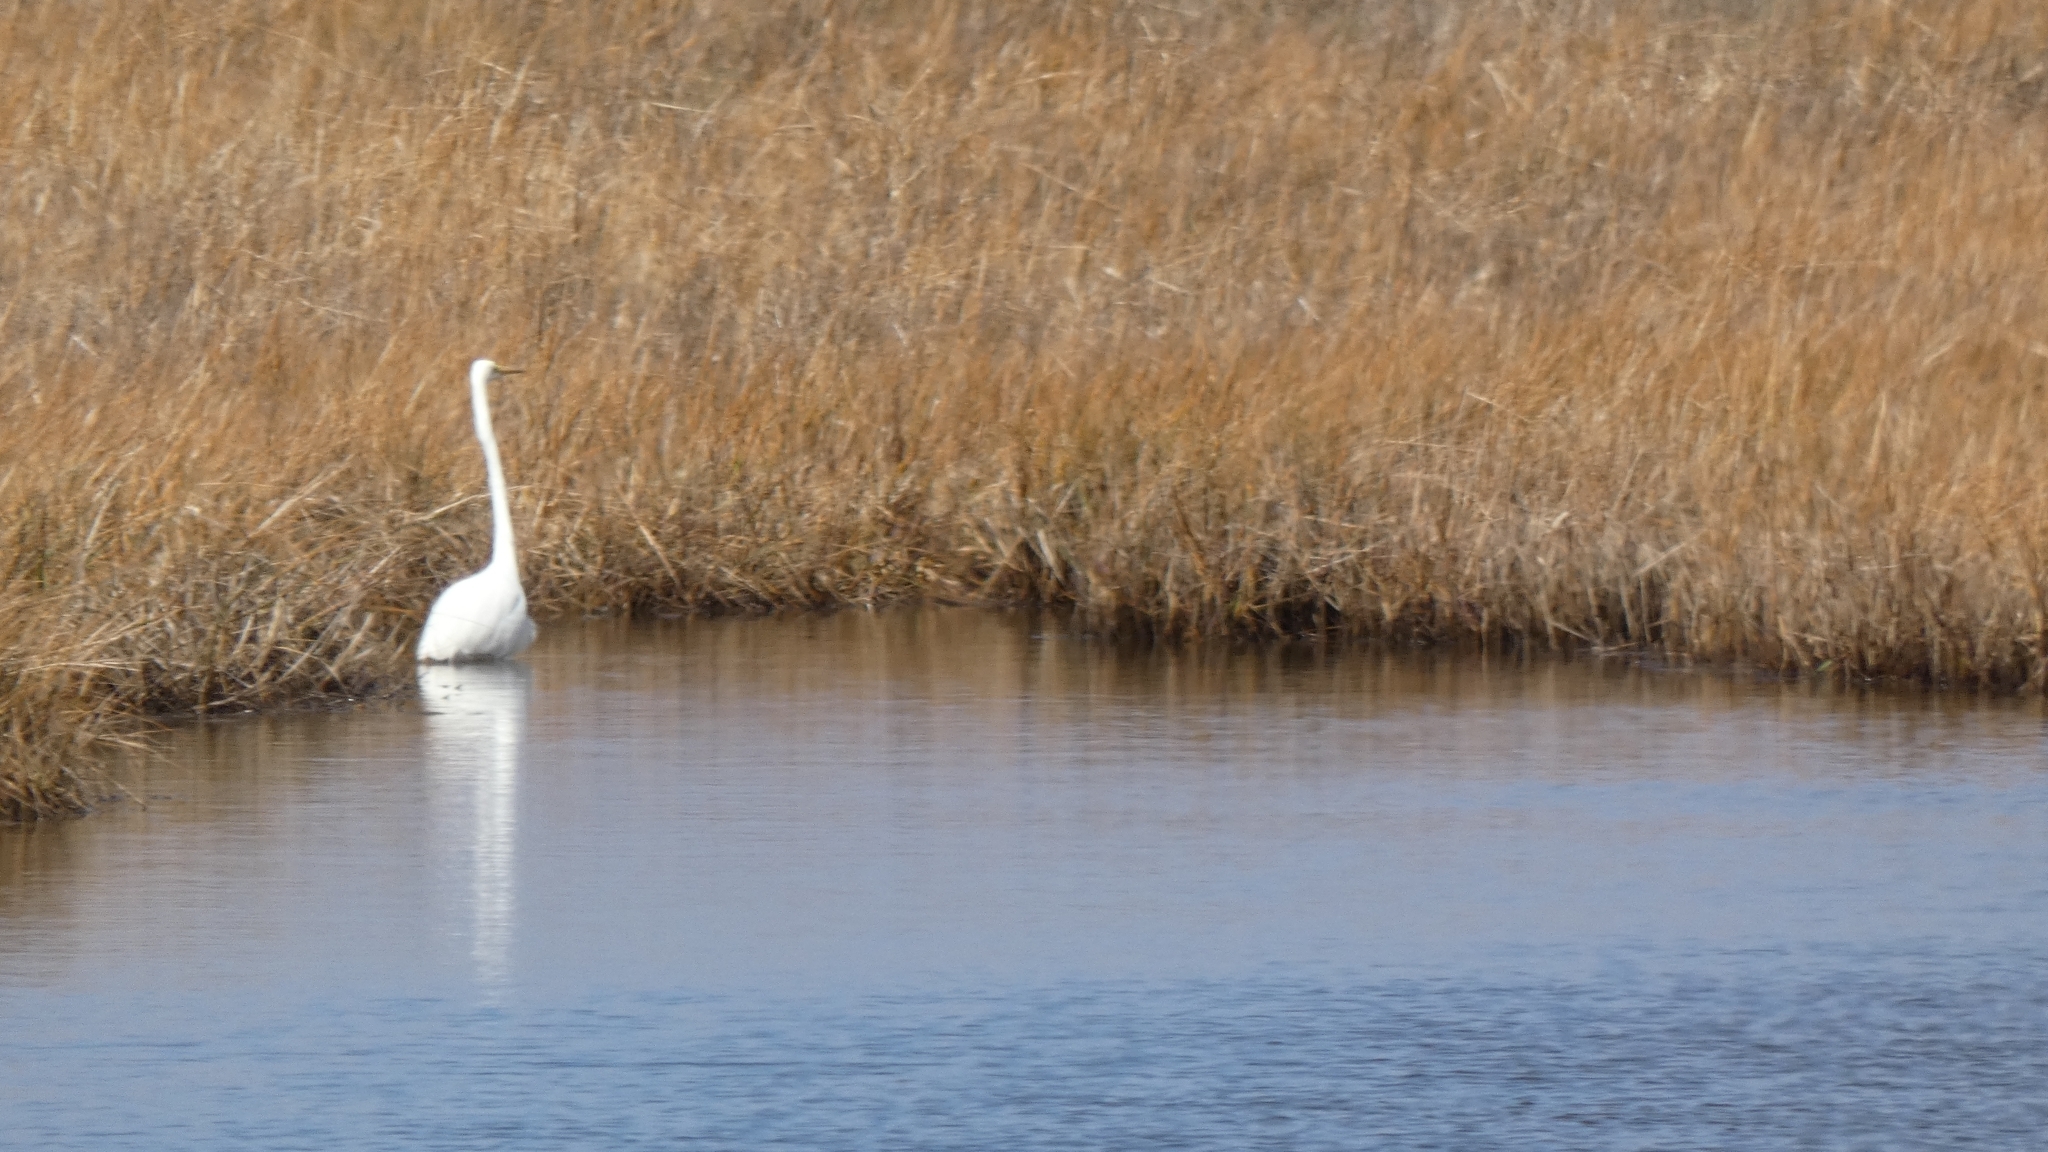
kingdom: Animalia
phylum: Chordata
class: Aves
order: Pelecaniformes
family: Ardeidae
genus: Ardea
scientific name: Ardea alba
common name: Great egret
